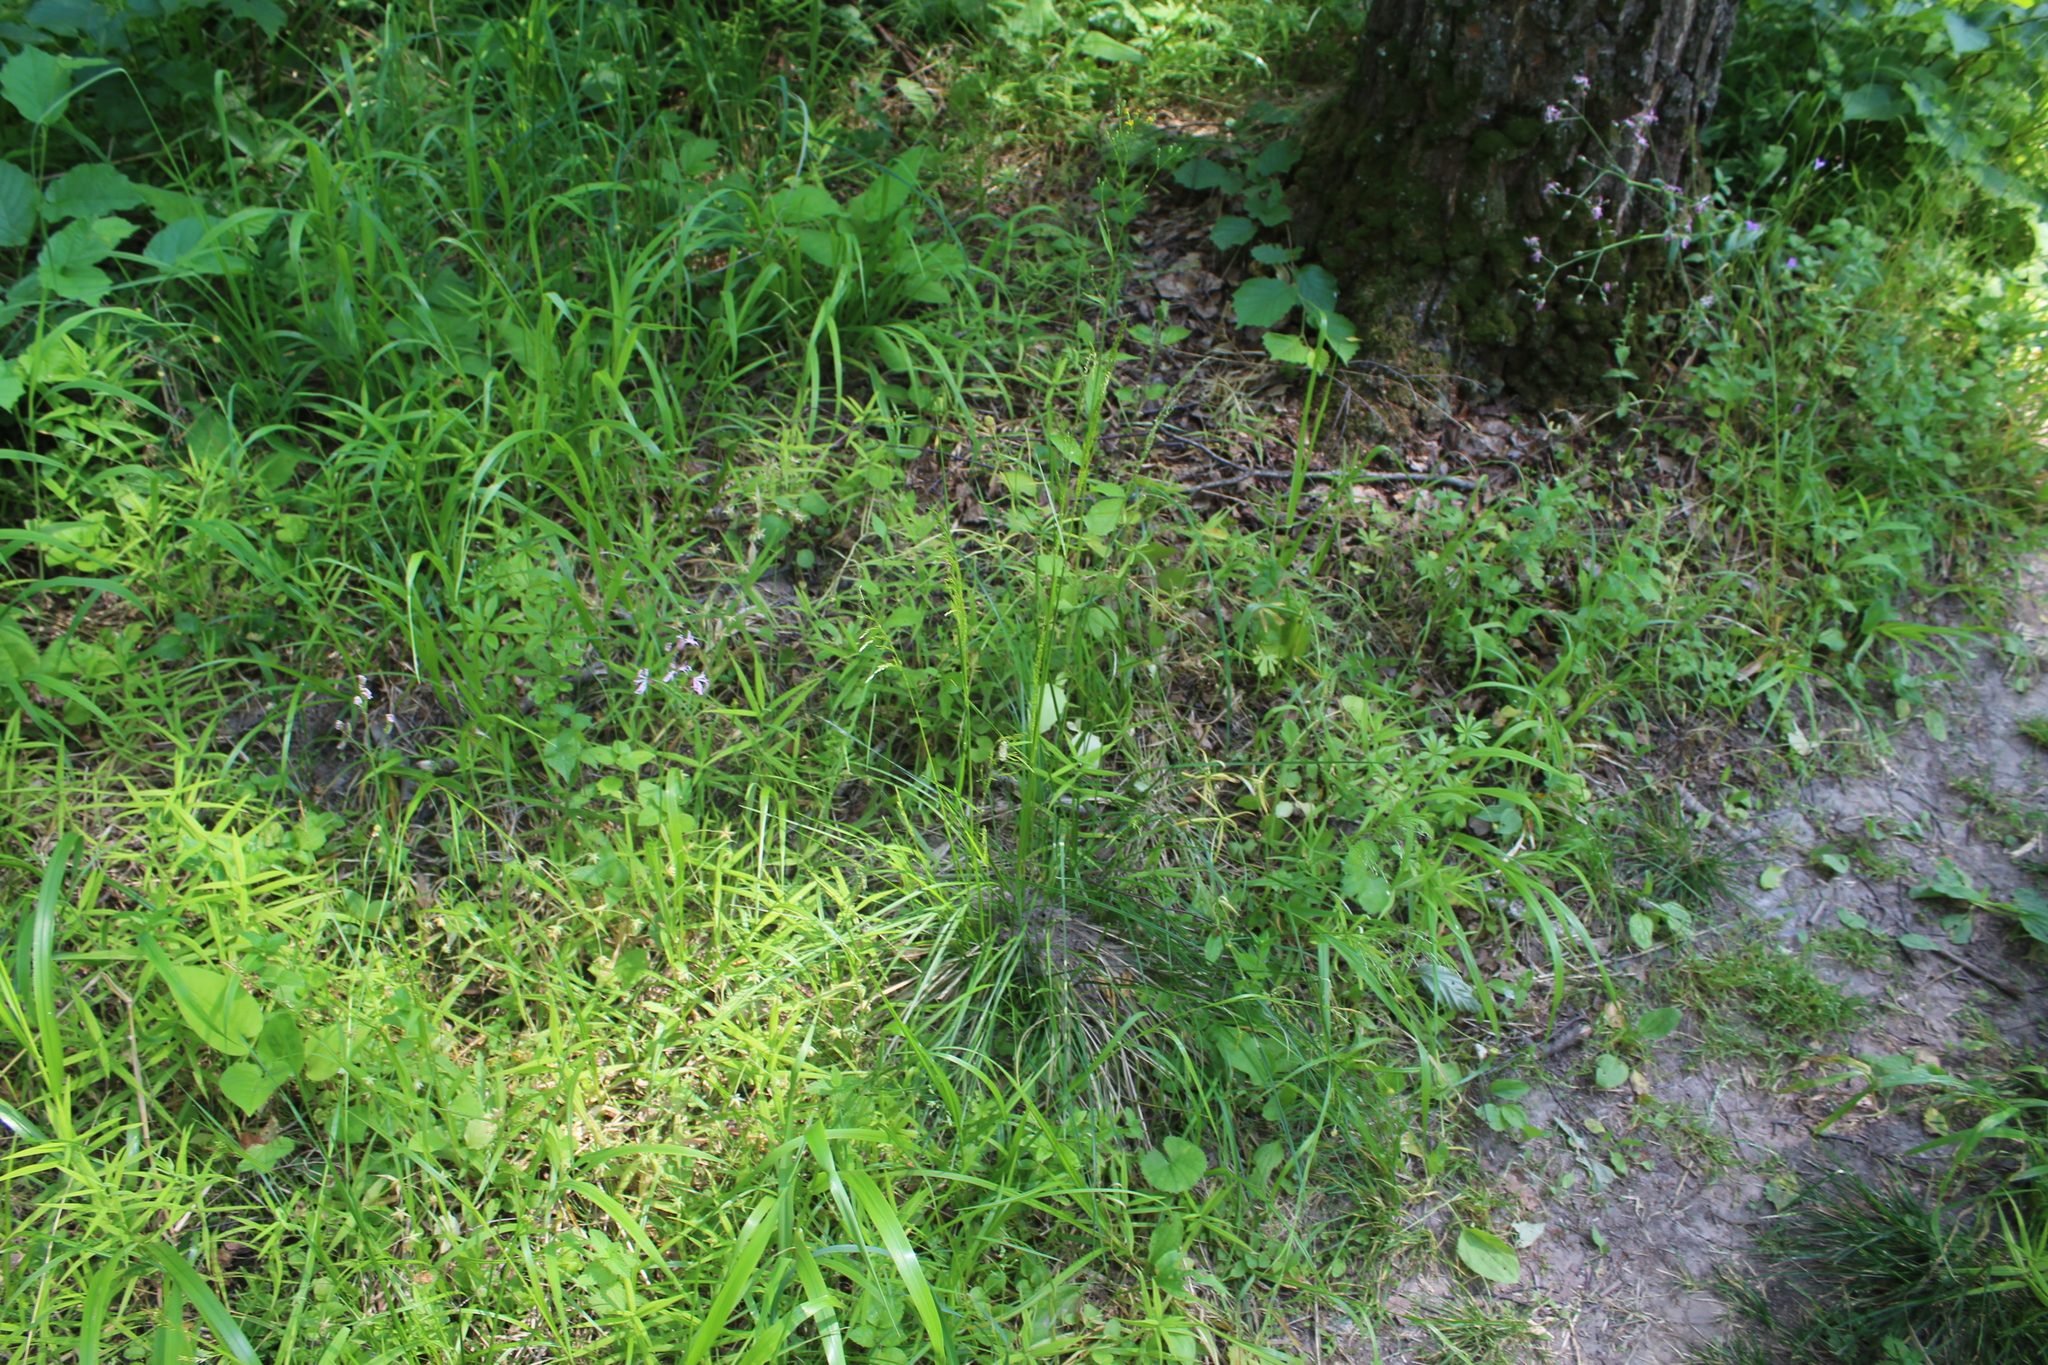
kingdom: Plantae
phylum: Tracheophyta
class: Liliopsida
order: Poales
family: Poaceae
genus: Deschampsia
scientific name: Deschampsia cespitosa
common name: Tufted hair-grass
